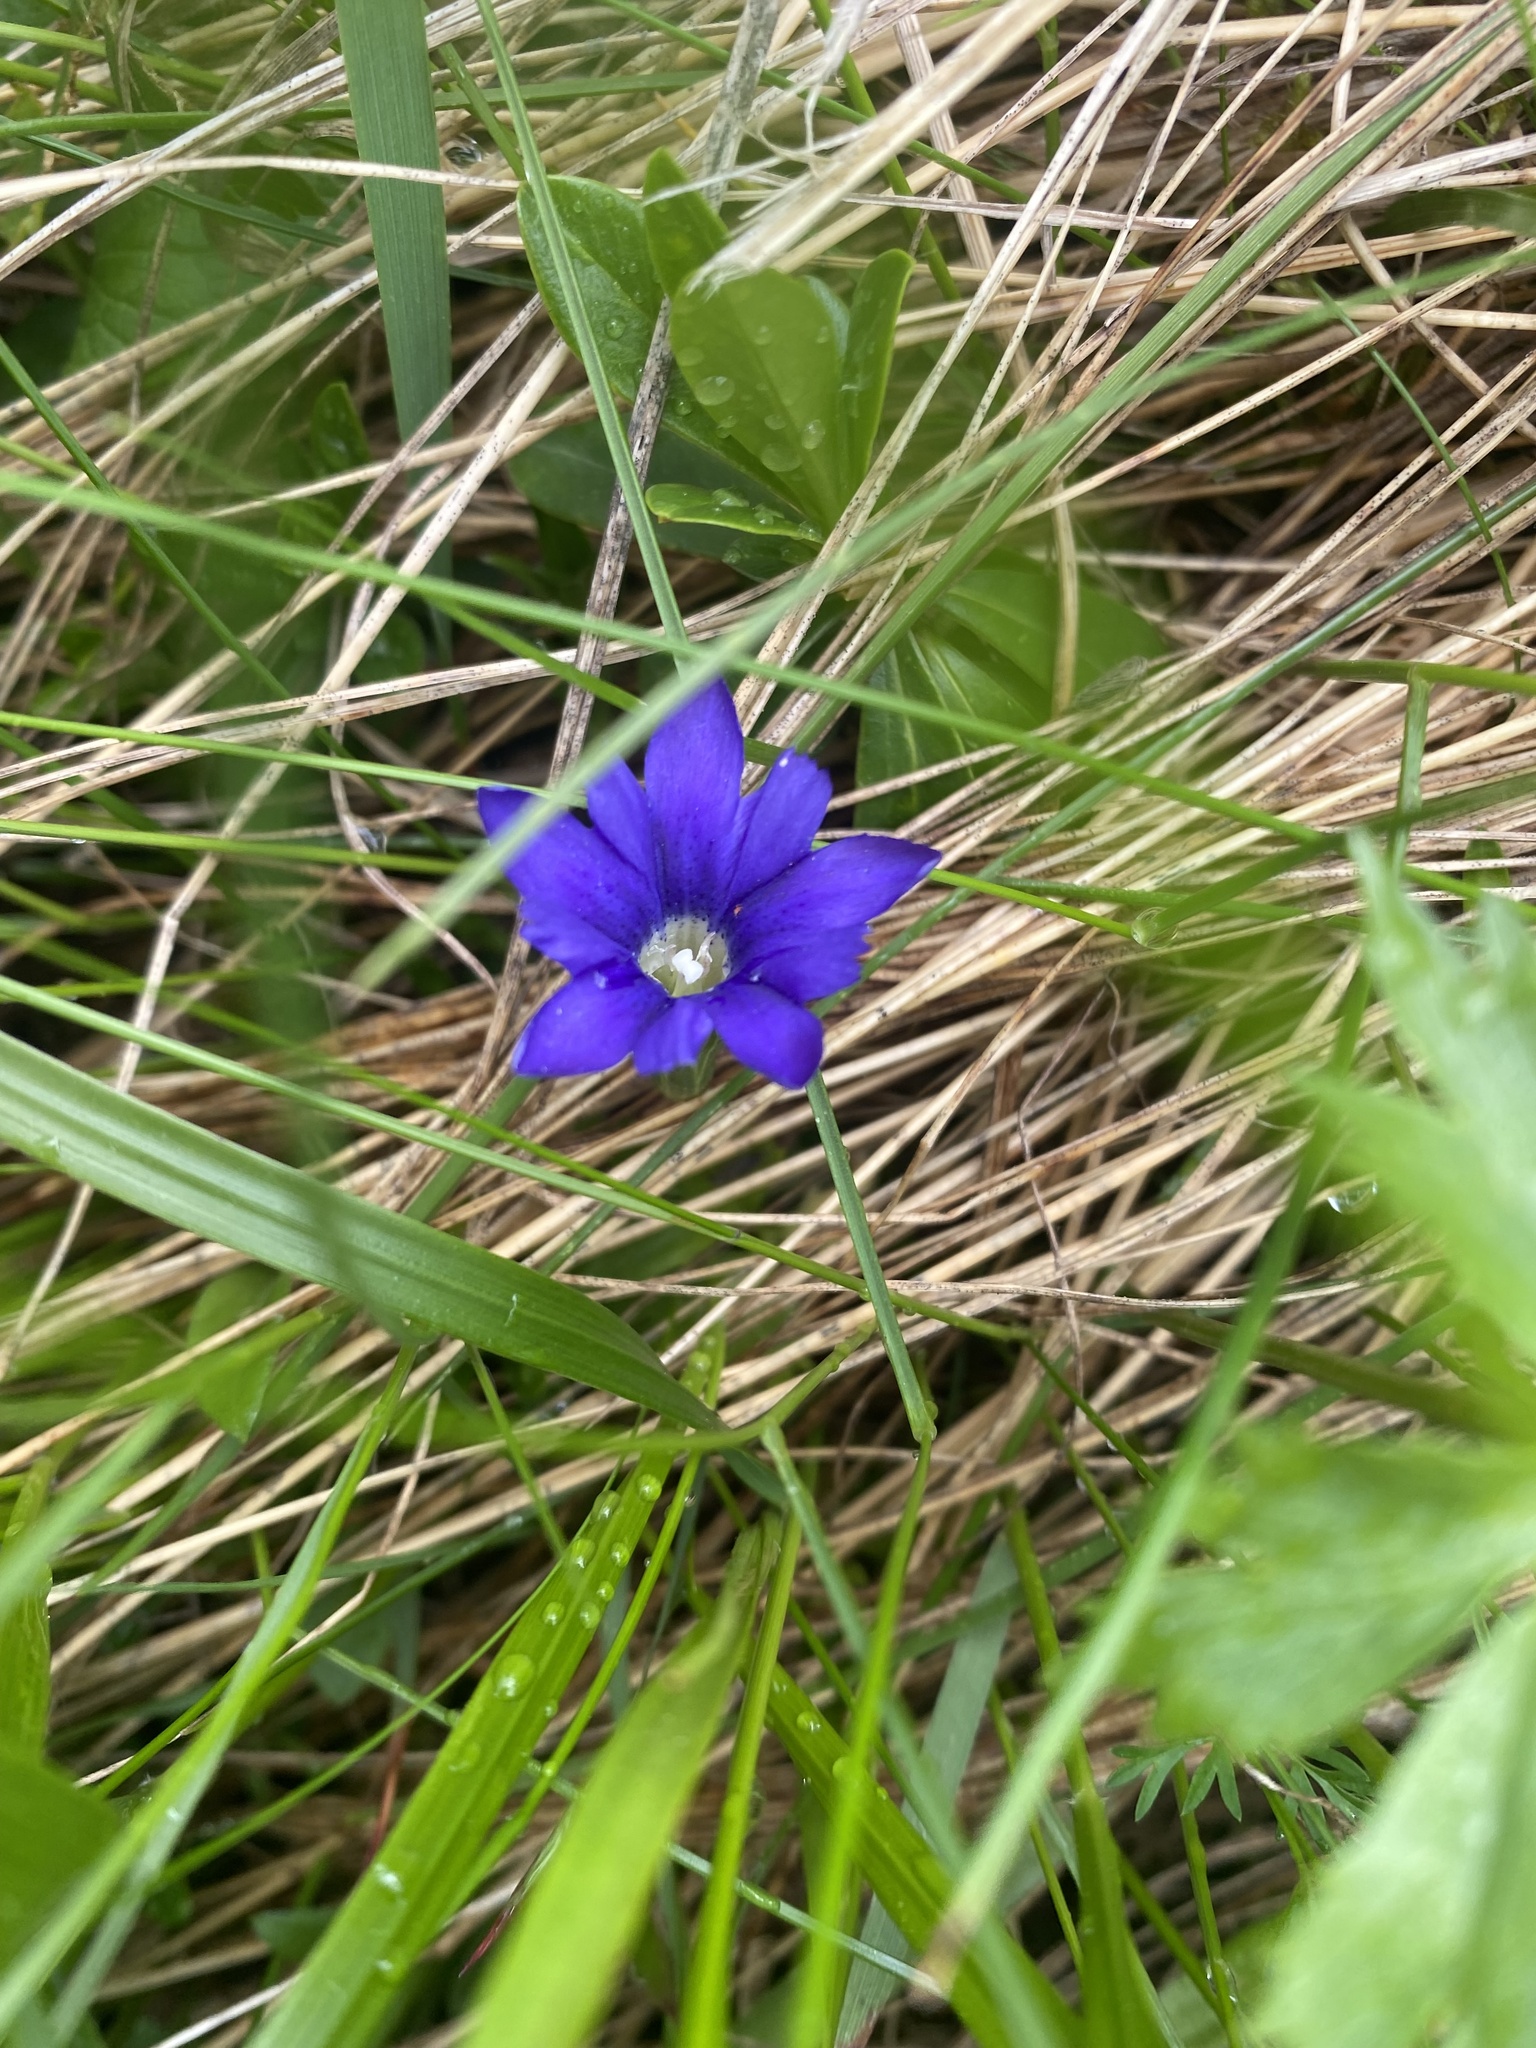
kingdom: Plantae
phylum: Tracheophyta
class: Magnoliopsida
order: Gentianales
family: Gentianaceae
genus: Gentiana
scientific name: Gentiana dshimilensis
